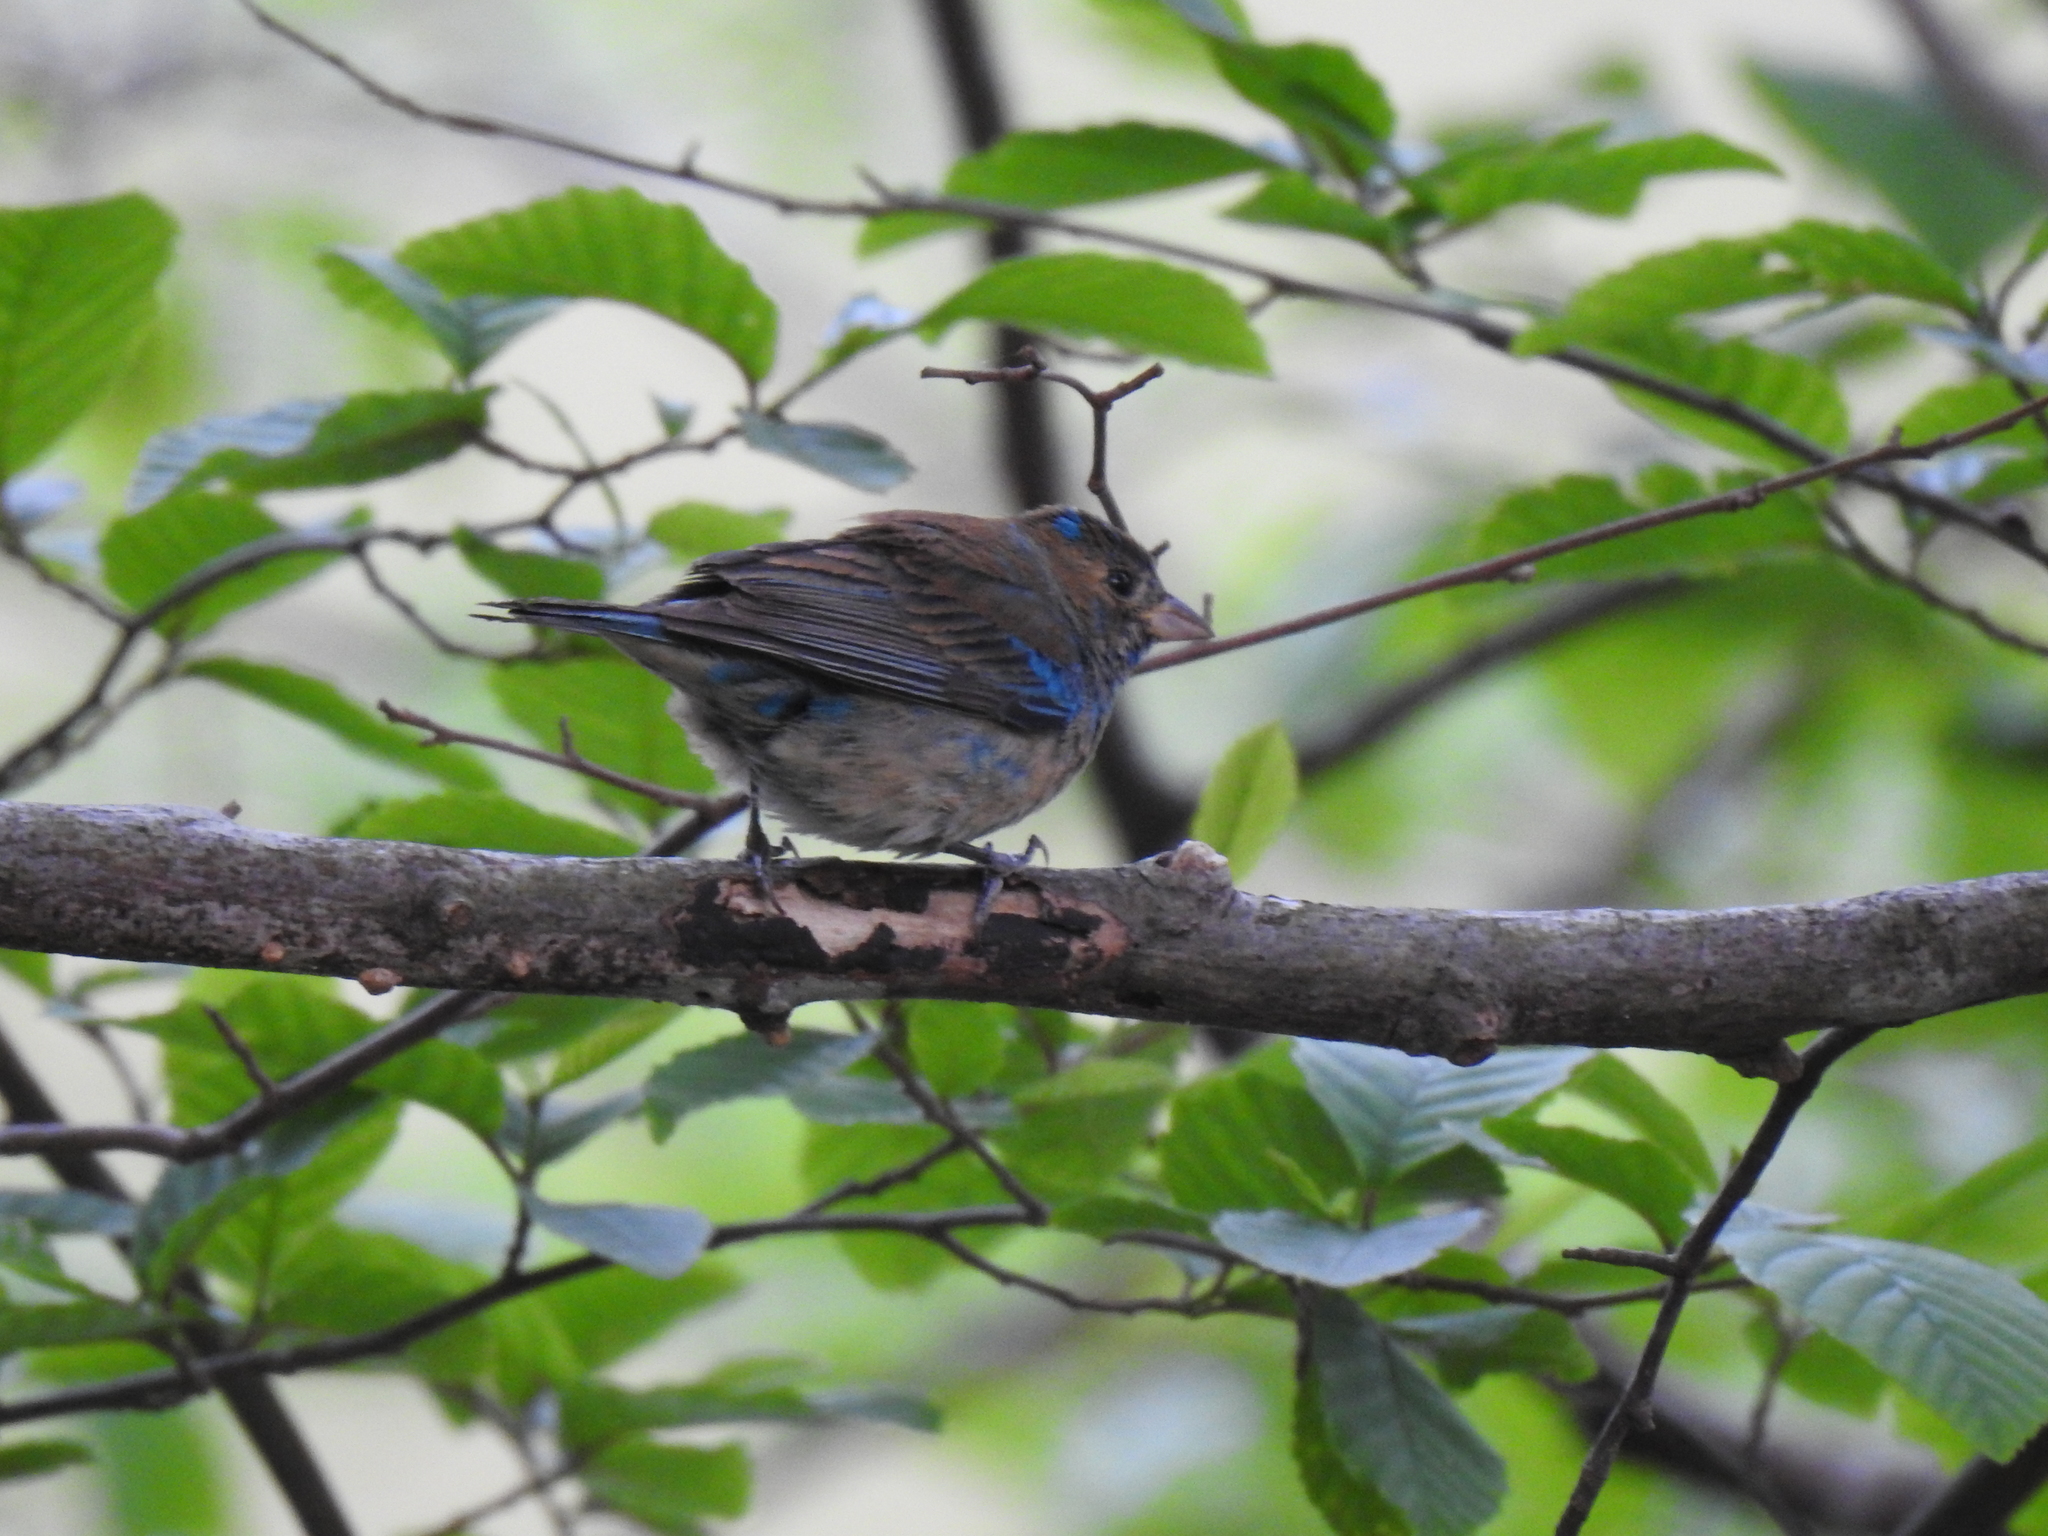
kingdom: Animalia
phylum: Chordata
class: Aves
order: Passeriformes
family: Cardinalidae
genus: Passerina
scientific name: Passerina cyanea
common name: Indigo bunting
